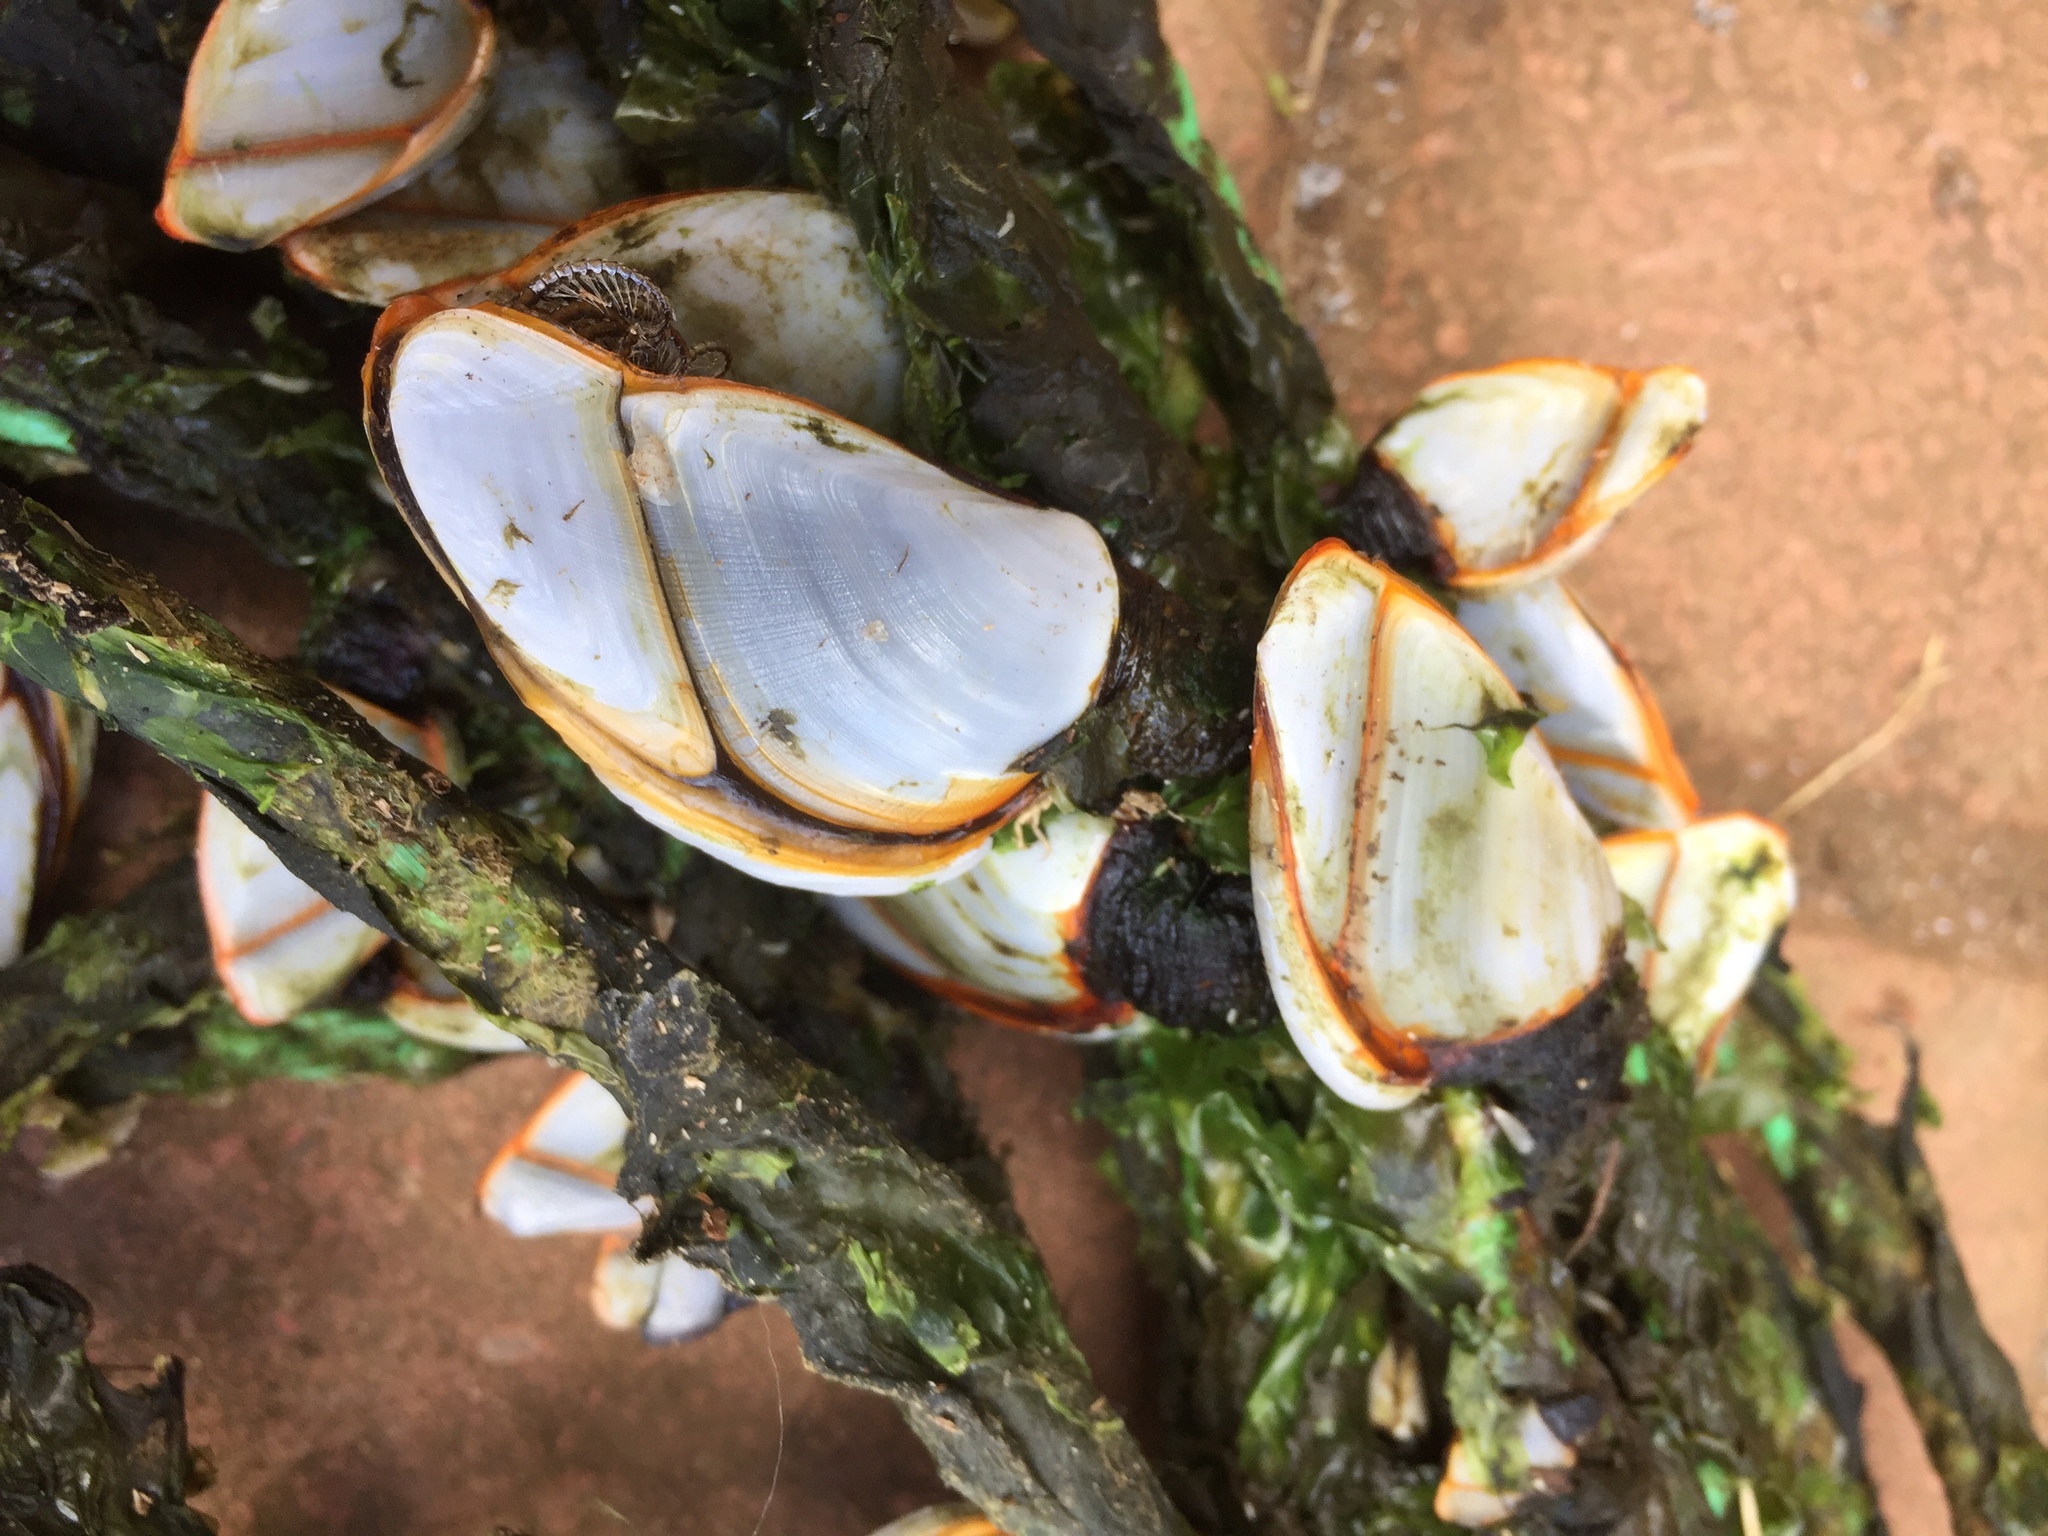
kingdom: Animalia
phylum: Arthropoda
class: Maxillopoda
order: Pedunculata
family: Lepadidae
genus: Lepas
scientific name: Lepas anatifera
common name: Common goose barnacle
